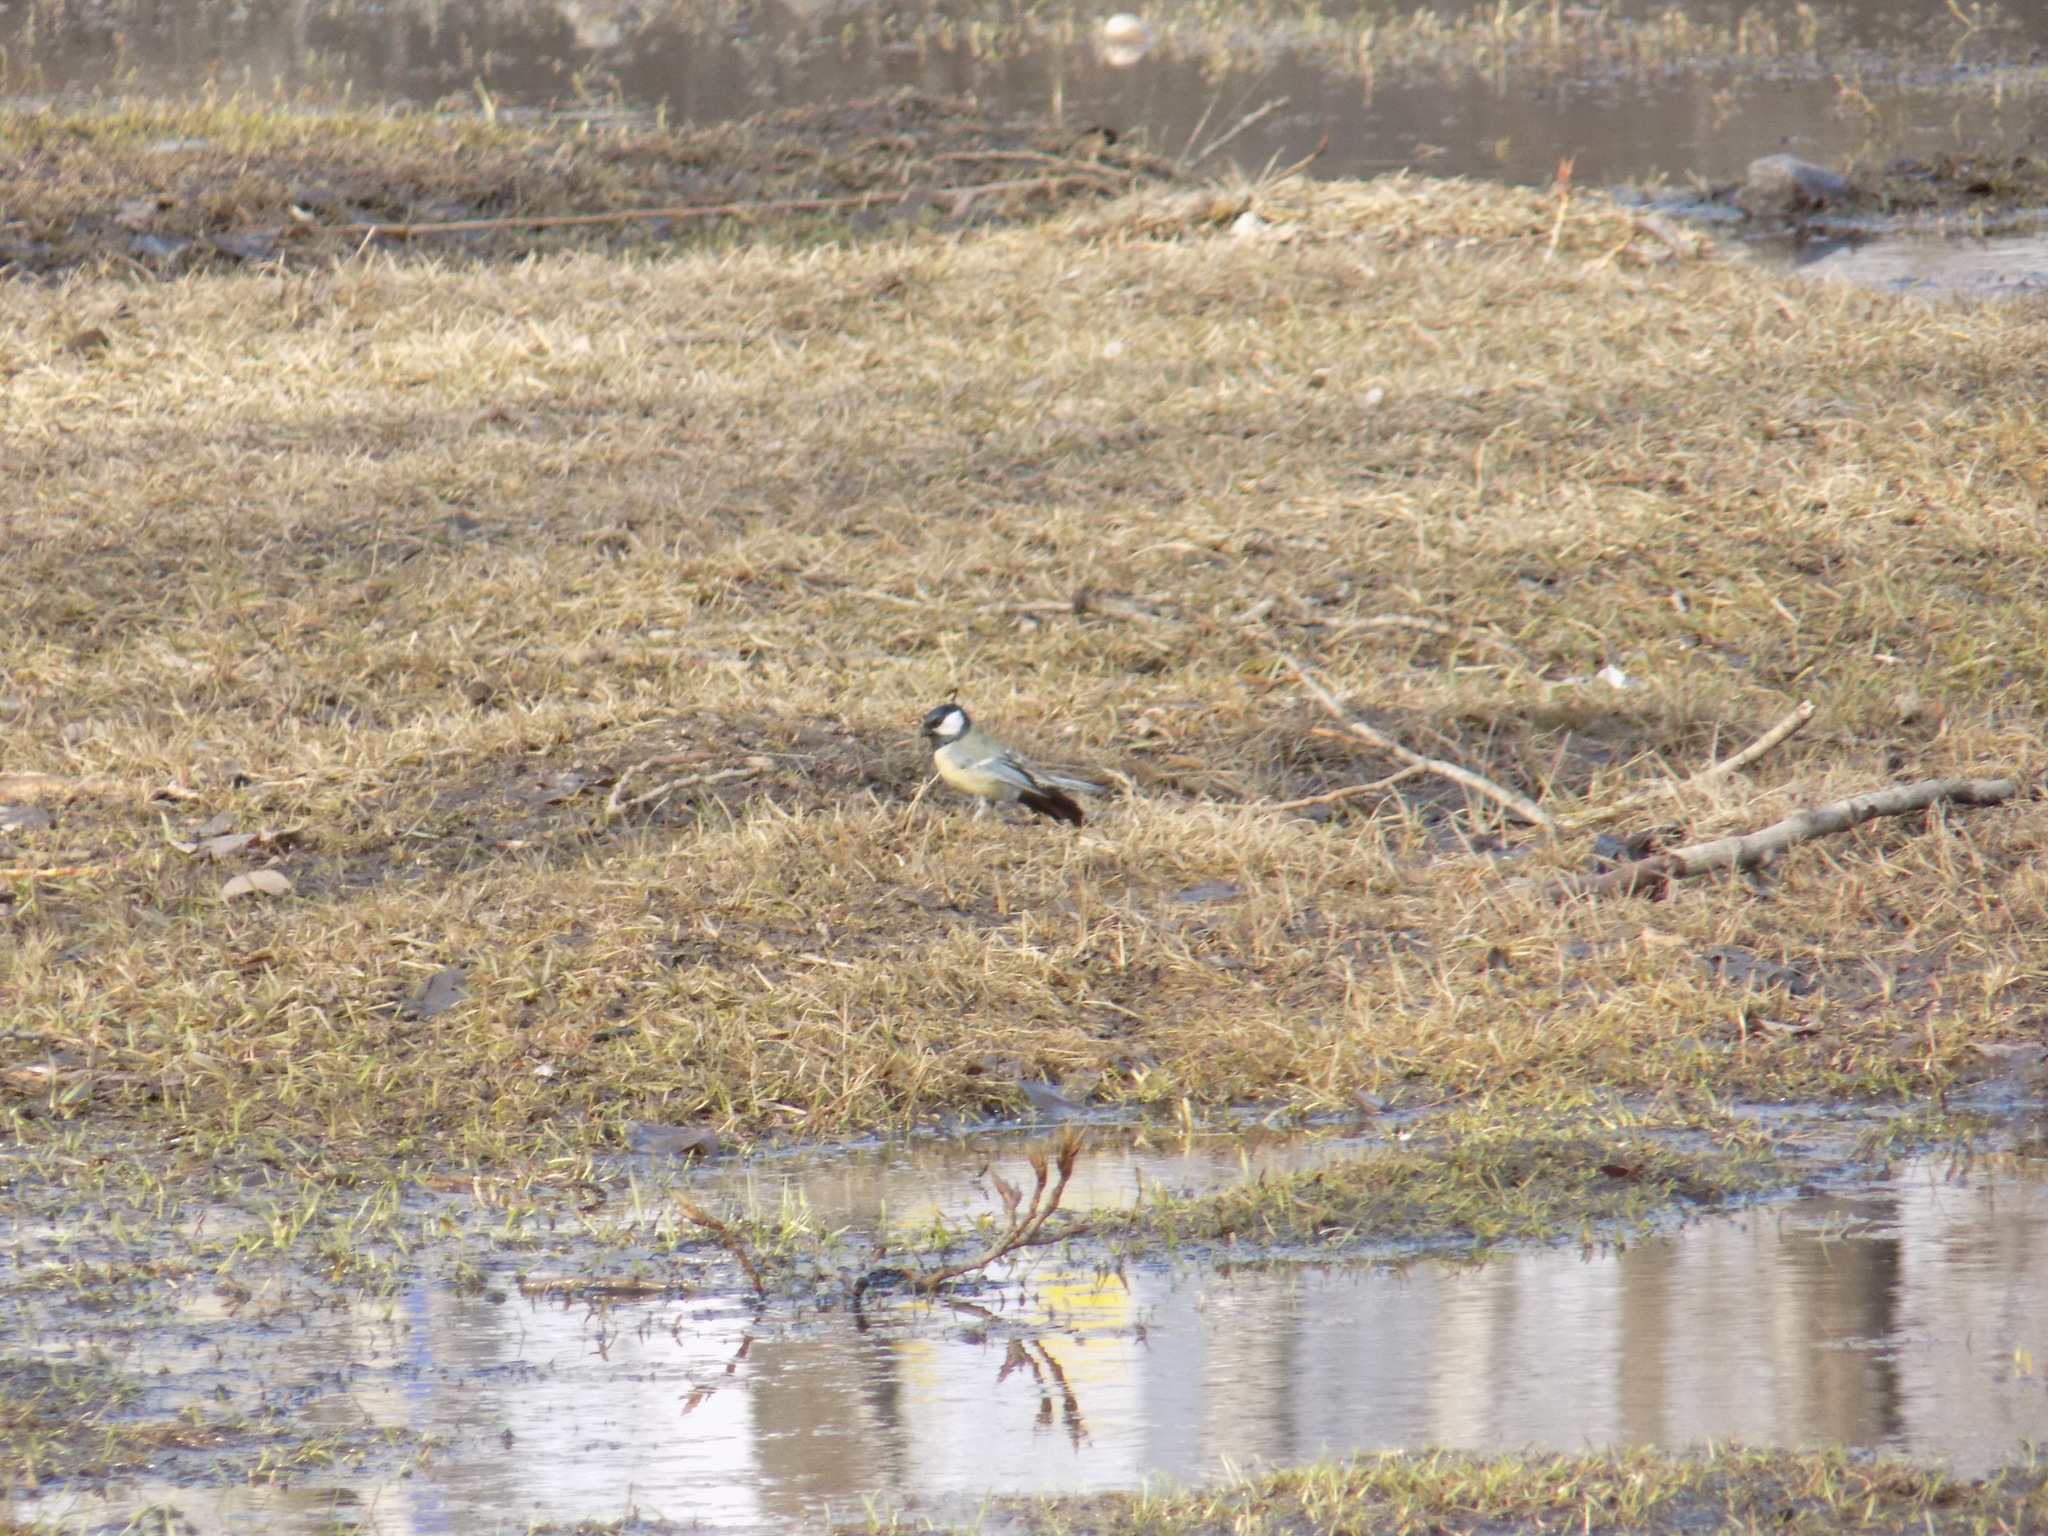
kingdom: Animalia
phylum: Chordata
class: Aves
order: Passeriformes
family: Paridae
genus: Parus
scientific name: Parus major
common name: Great tit
